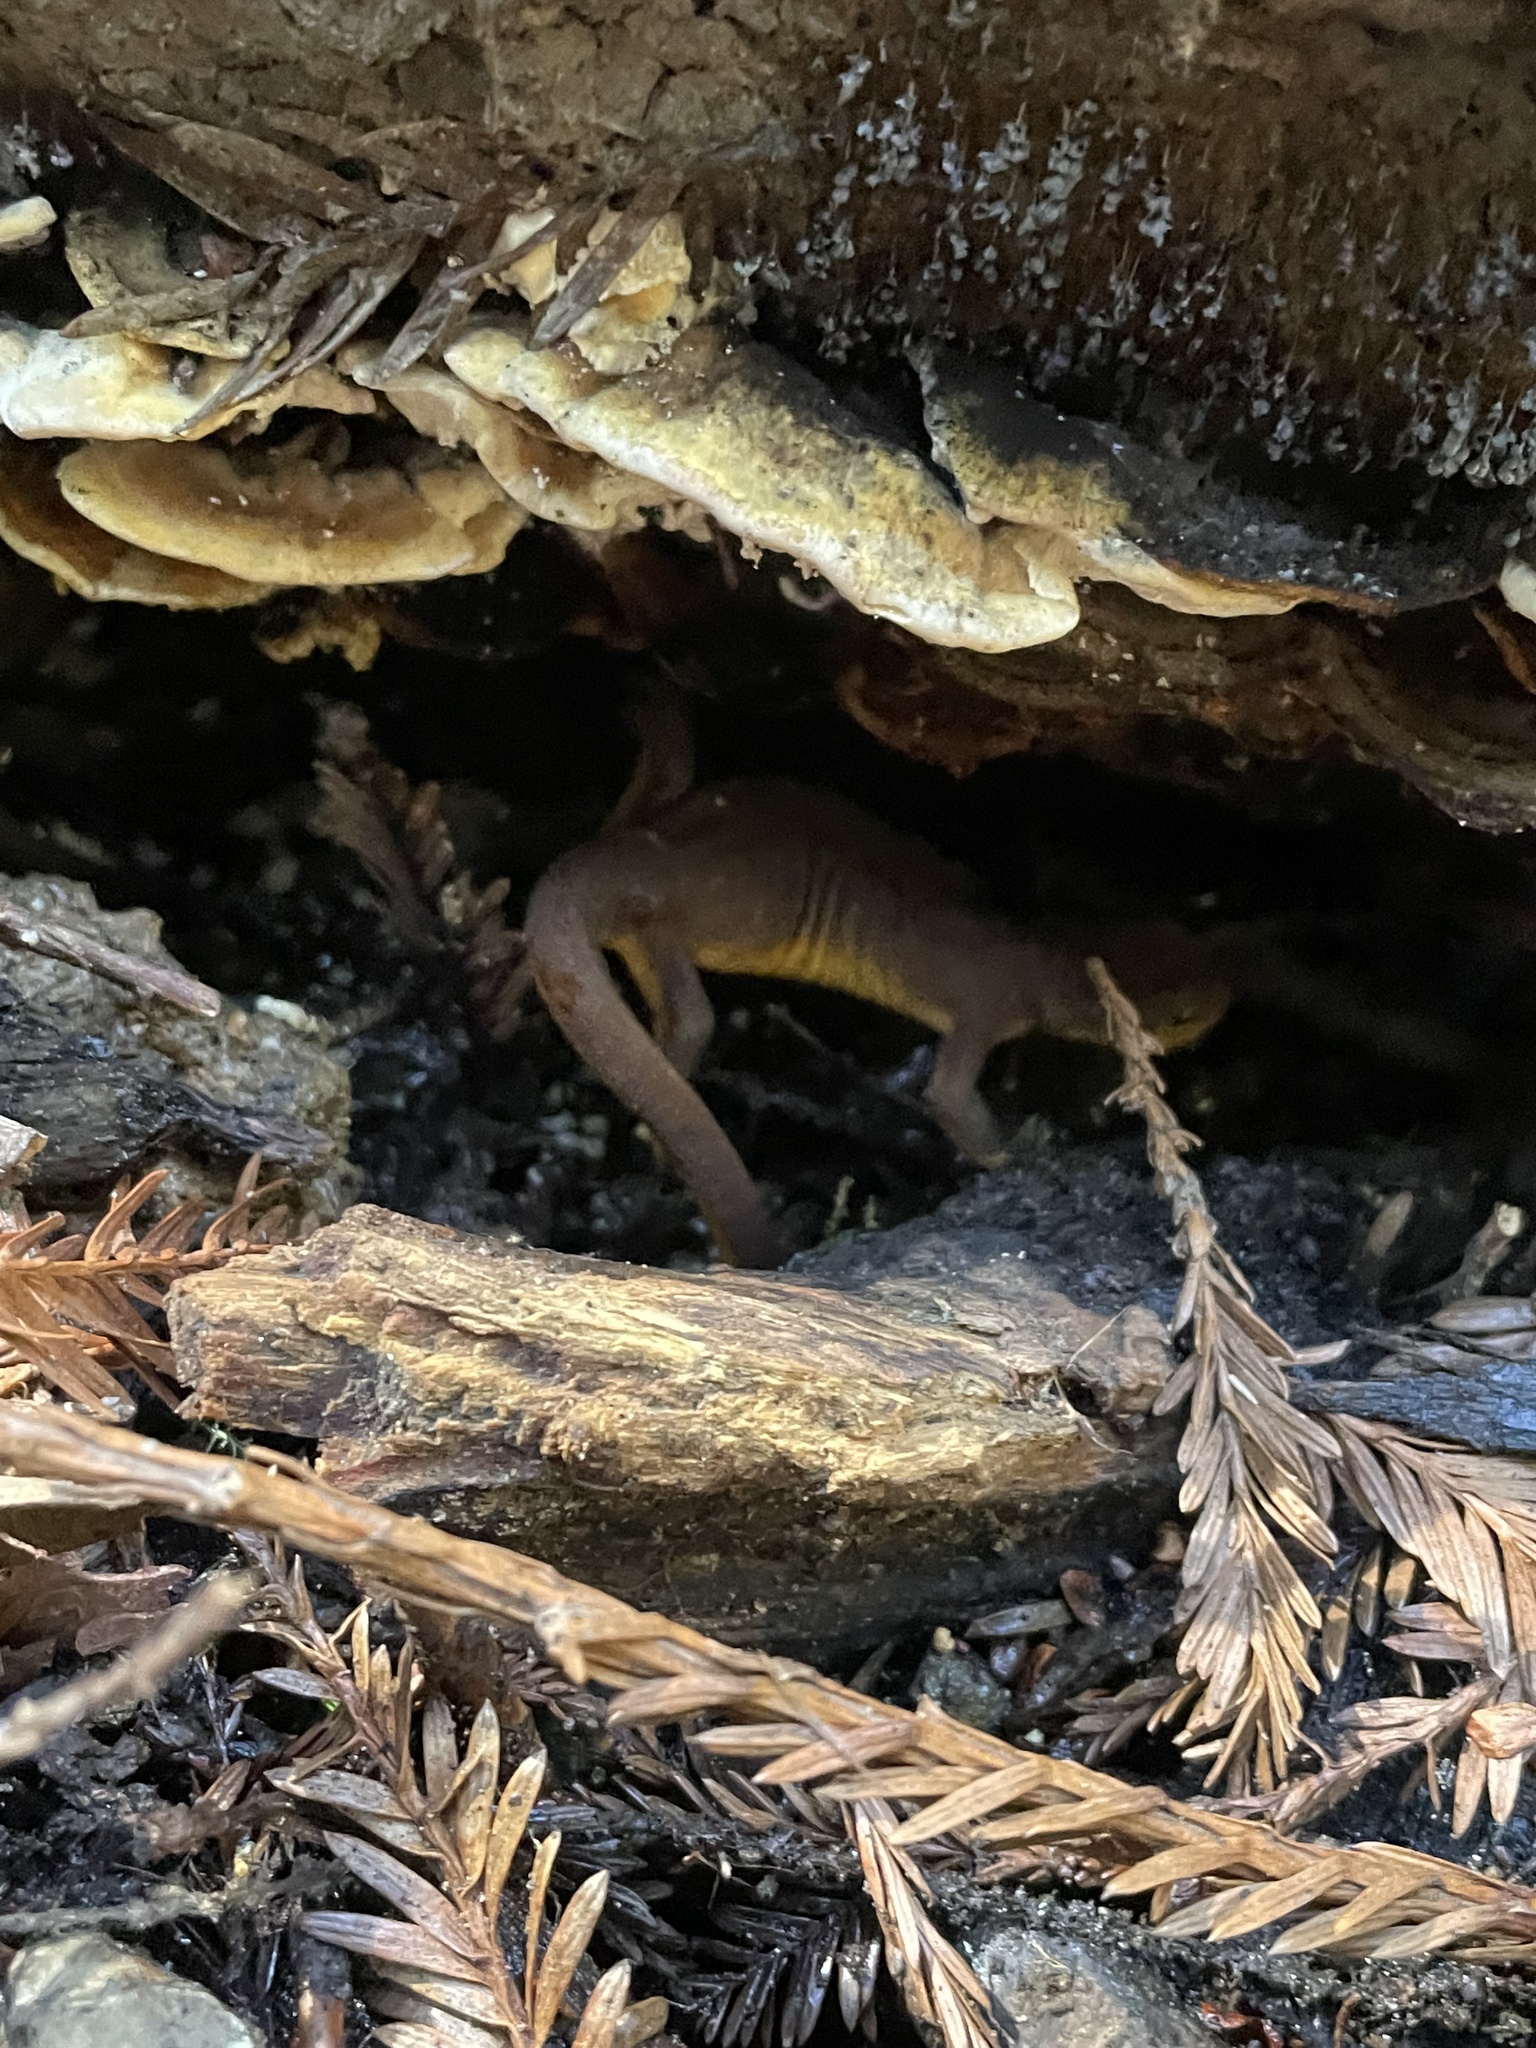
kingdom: Animalia
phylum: Chordata
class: Amphibia
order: Caudata
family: Salamandridae
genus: Taricha
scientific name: Taricha torosa
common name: California newt
